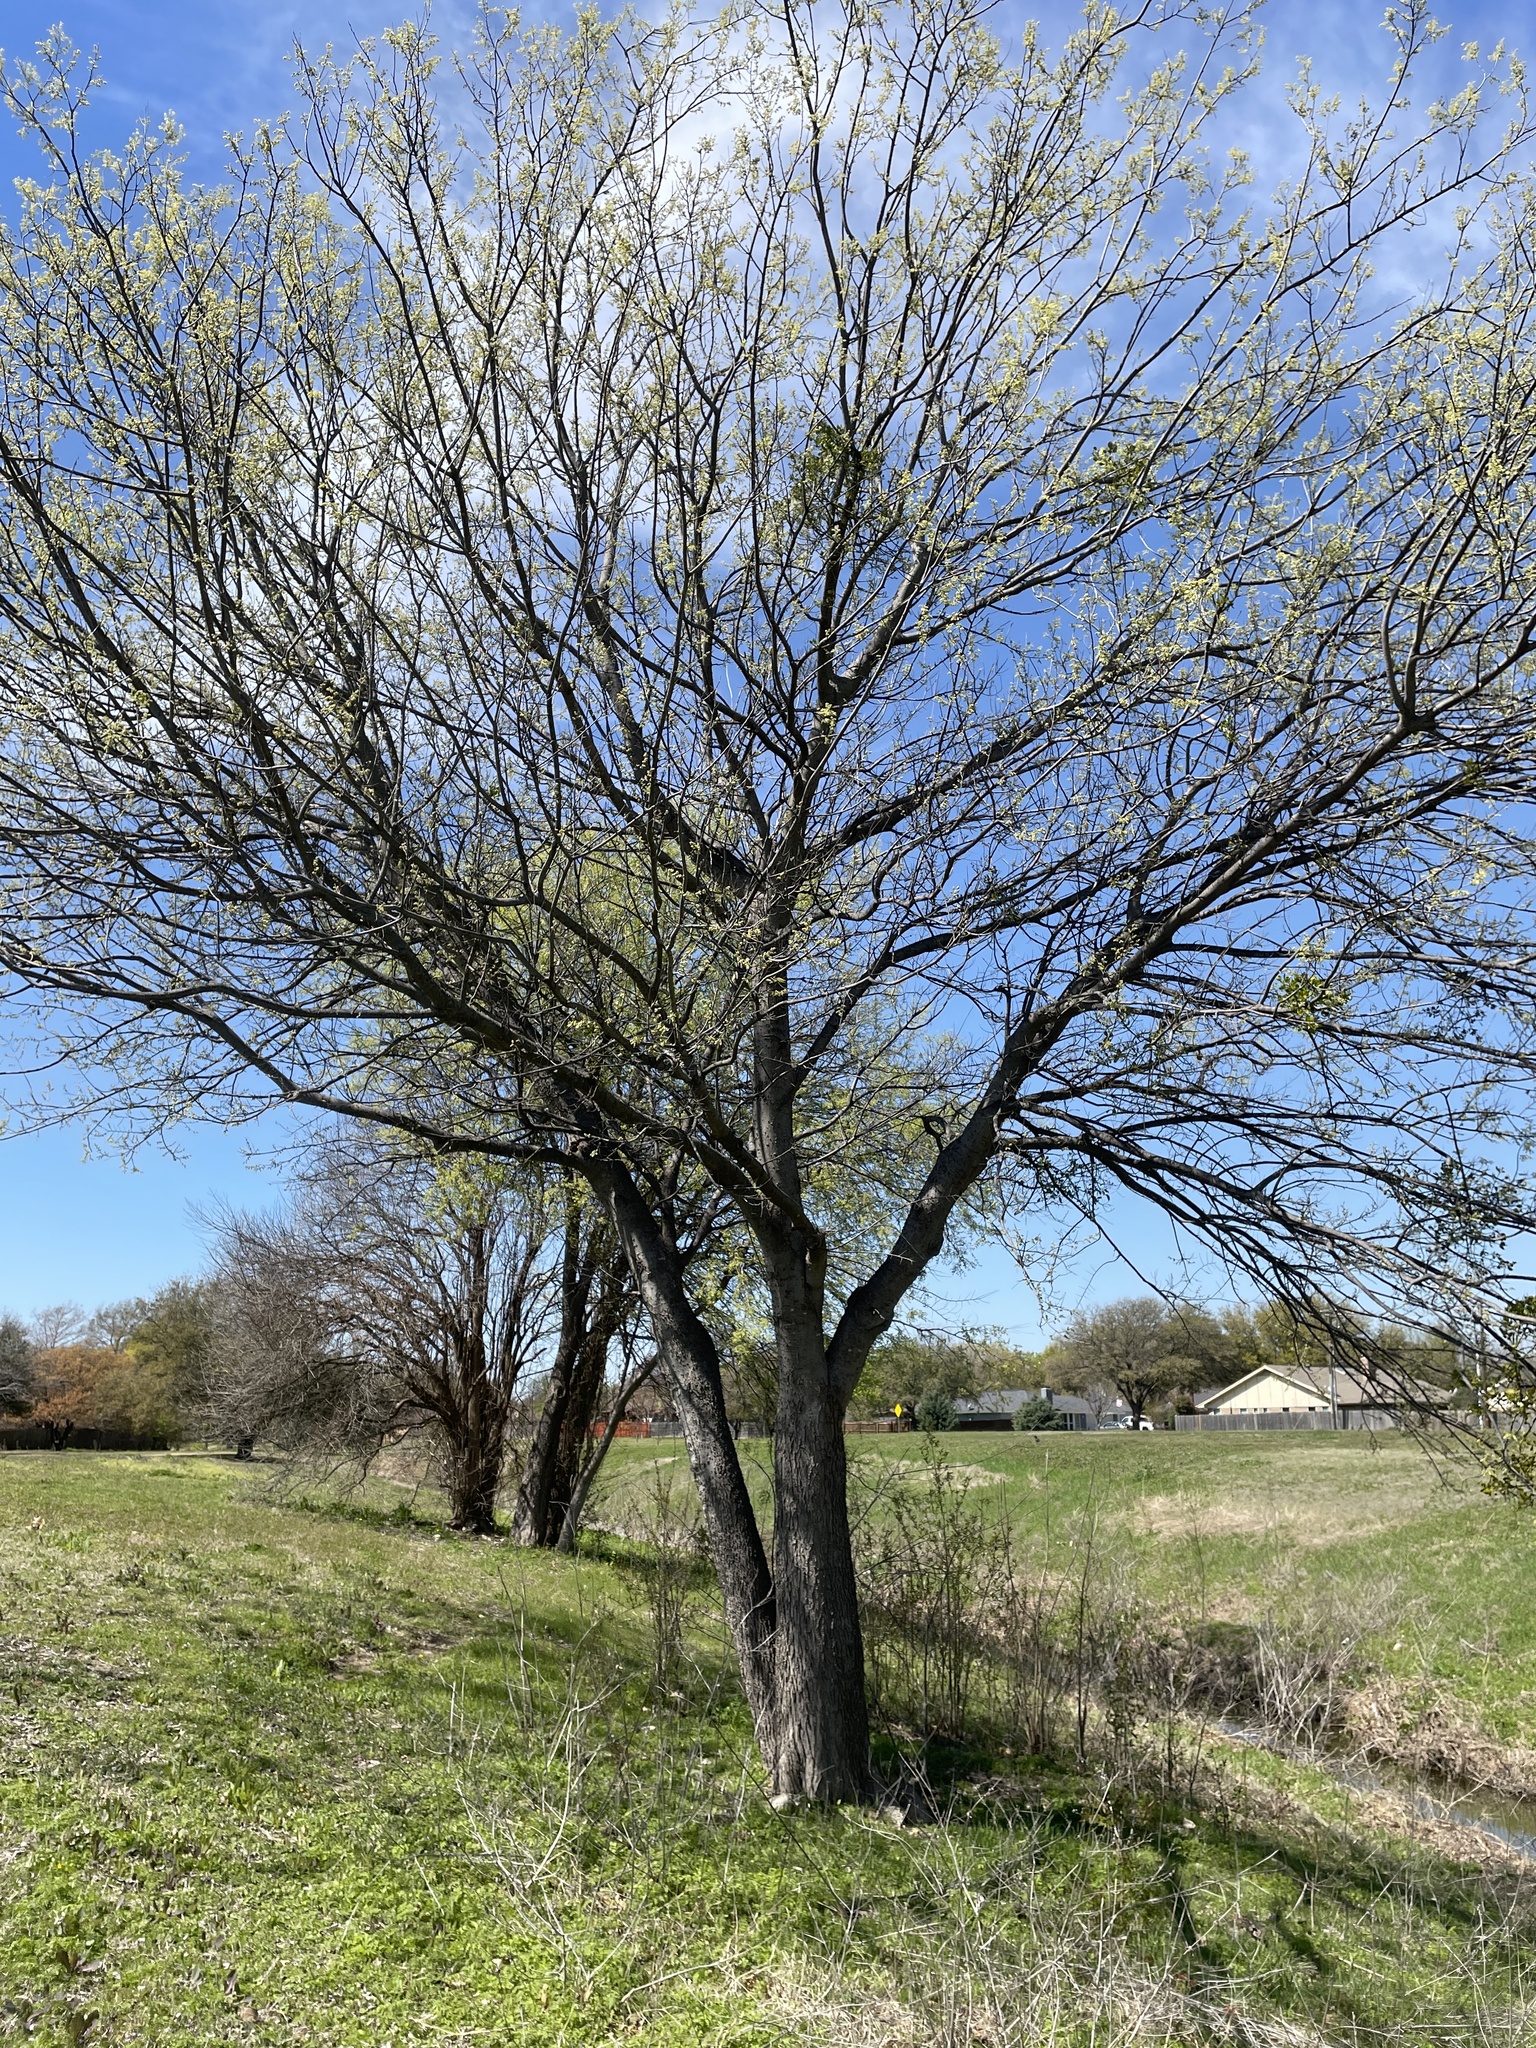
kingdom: Plantae
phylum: Tracheophyta
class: Magnoliopsida
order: Rosales
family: Cannabaceae
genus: Celtis
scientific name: Celtis laevigata
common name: Sugarberry
